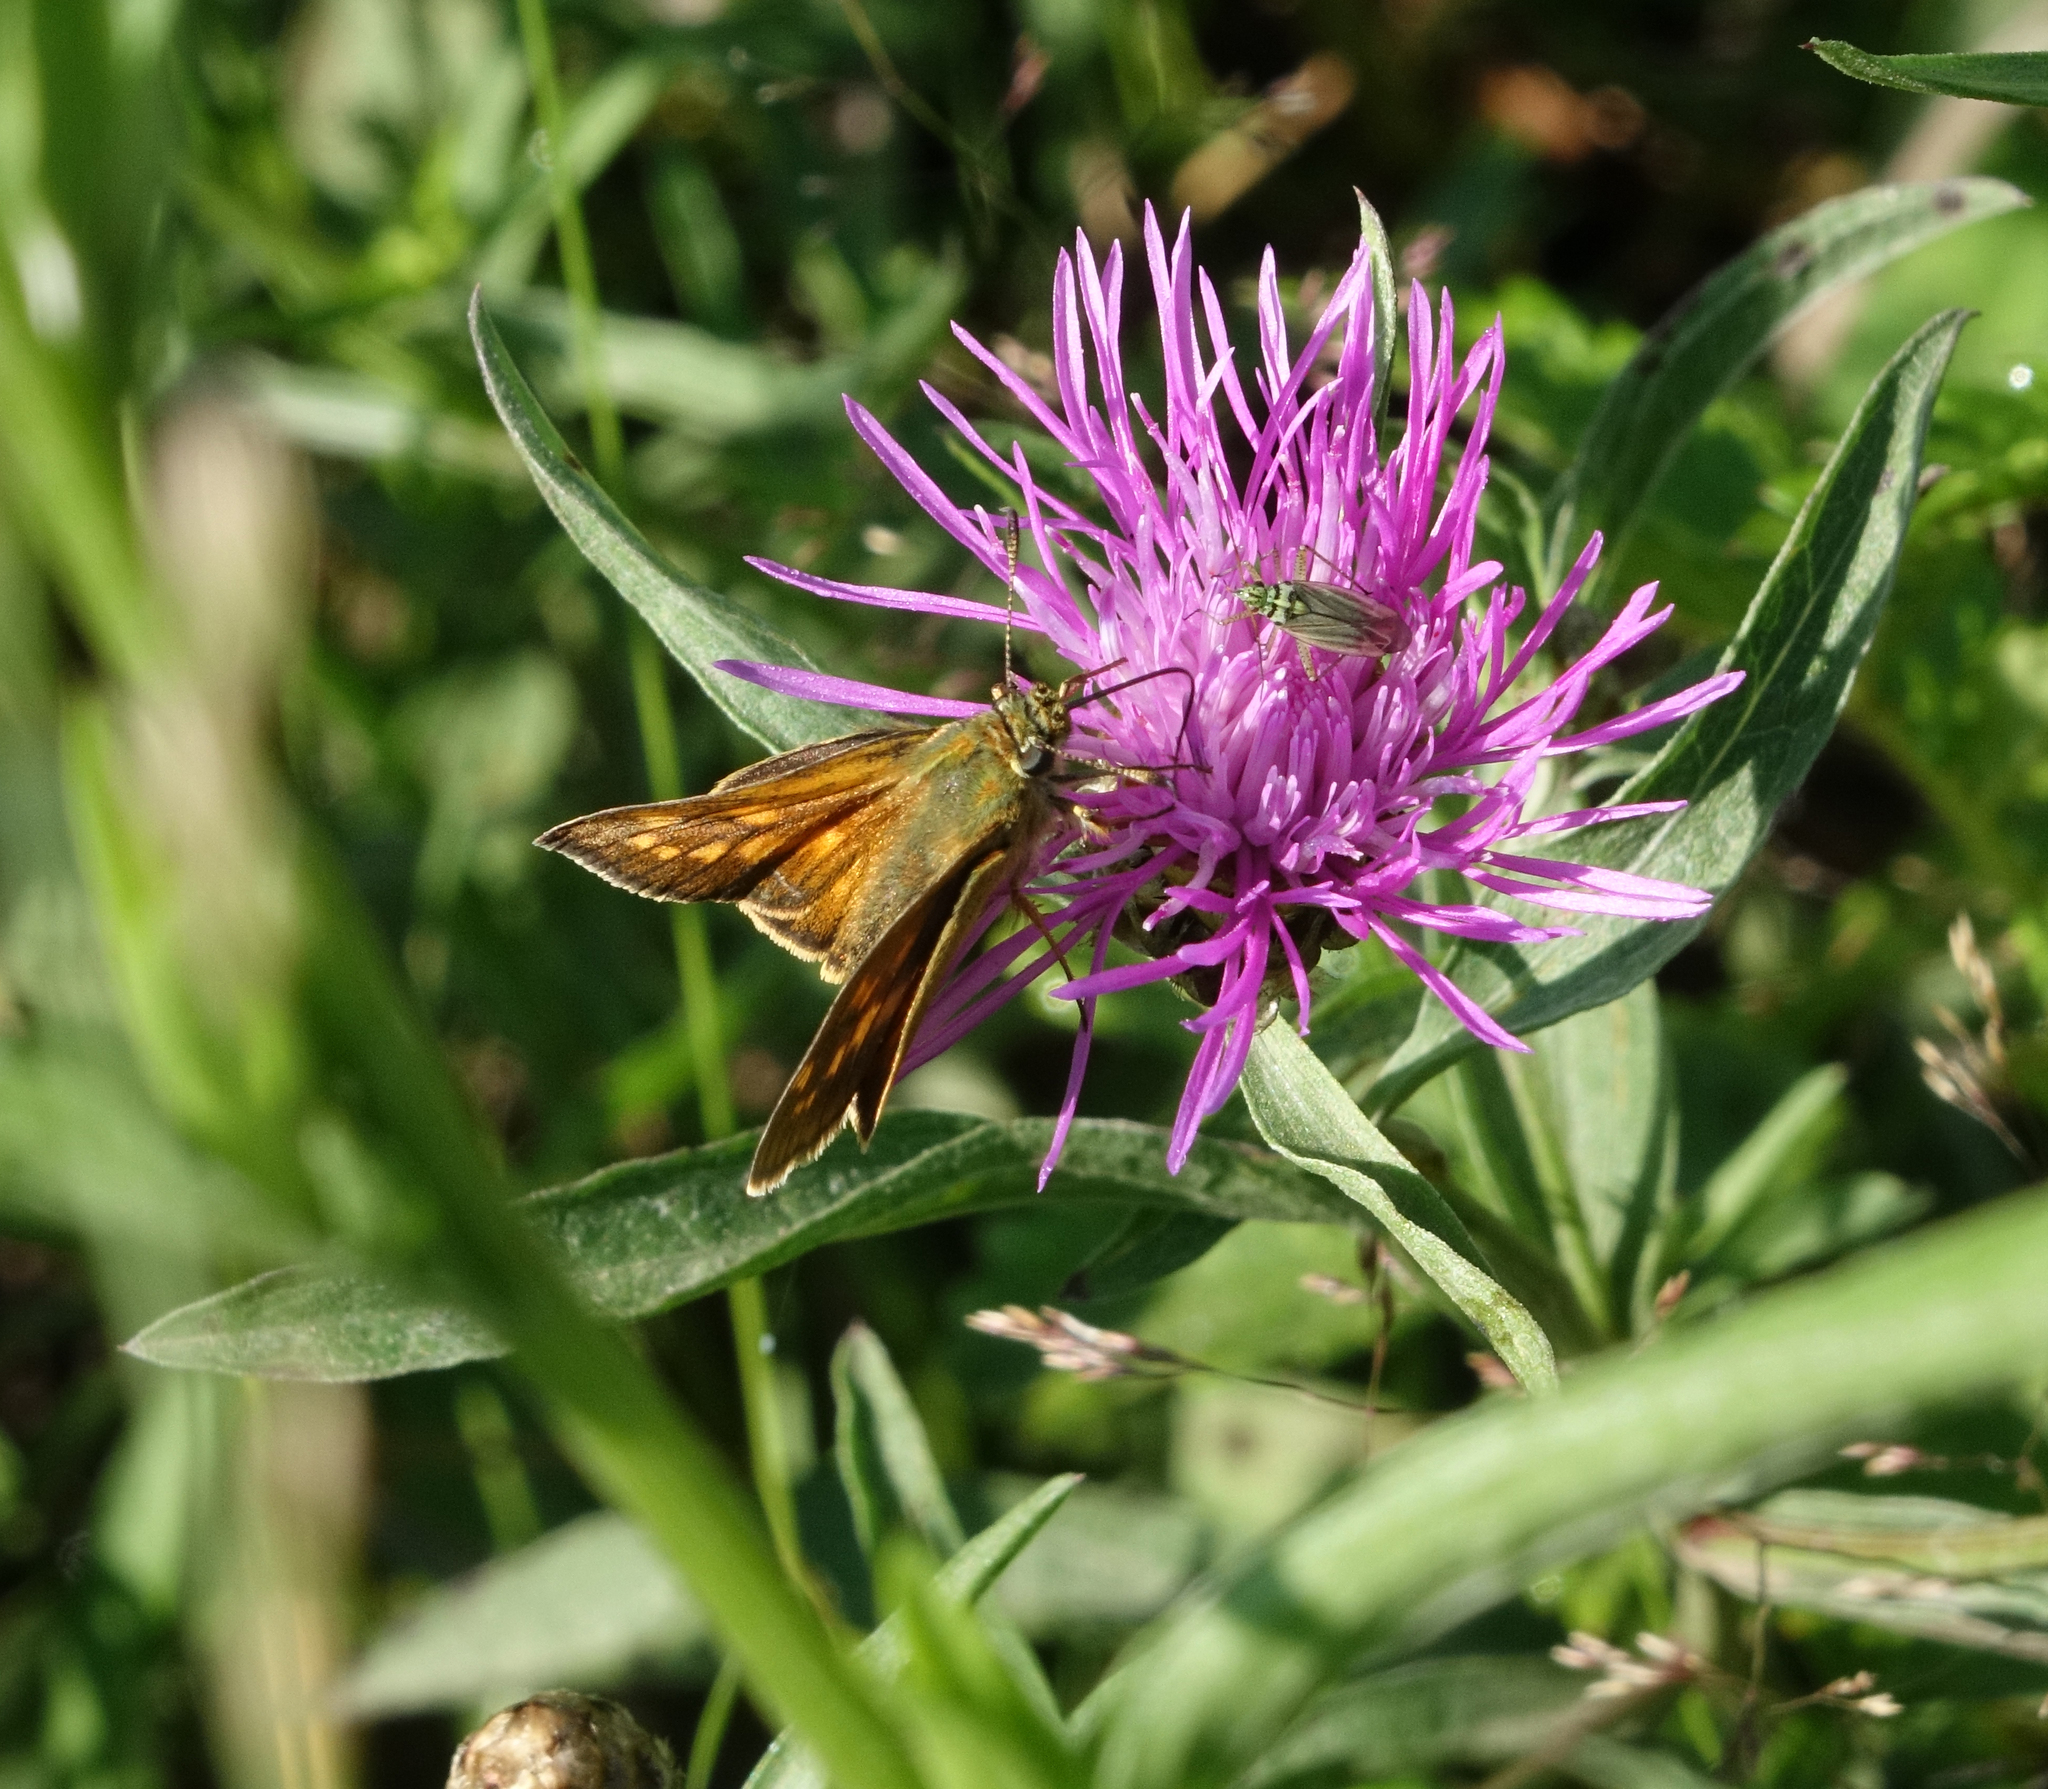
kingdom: Animalia
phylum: Arthropoda
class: Insecta
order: Lepidoptera
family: Hesperiidae
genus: Ochlodes
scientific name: Ochlodes venata
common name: Large skipper
